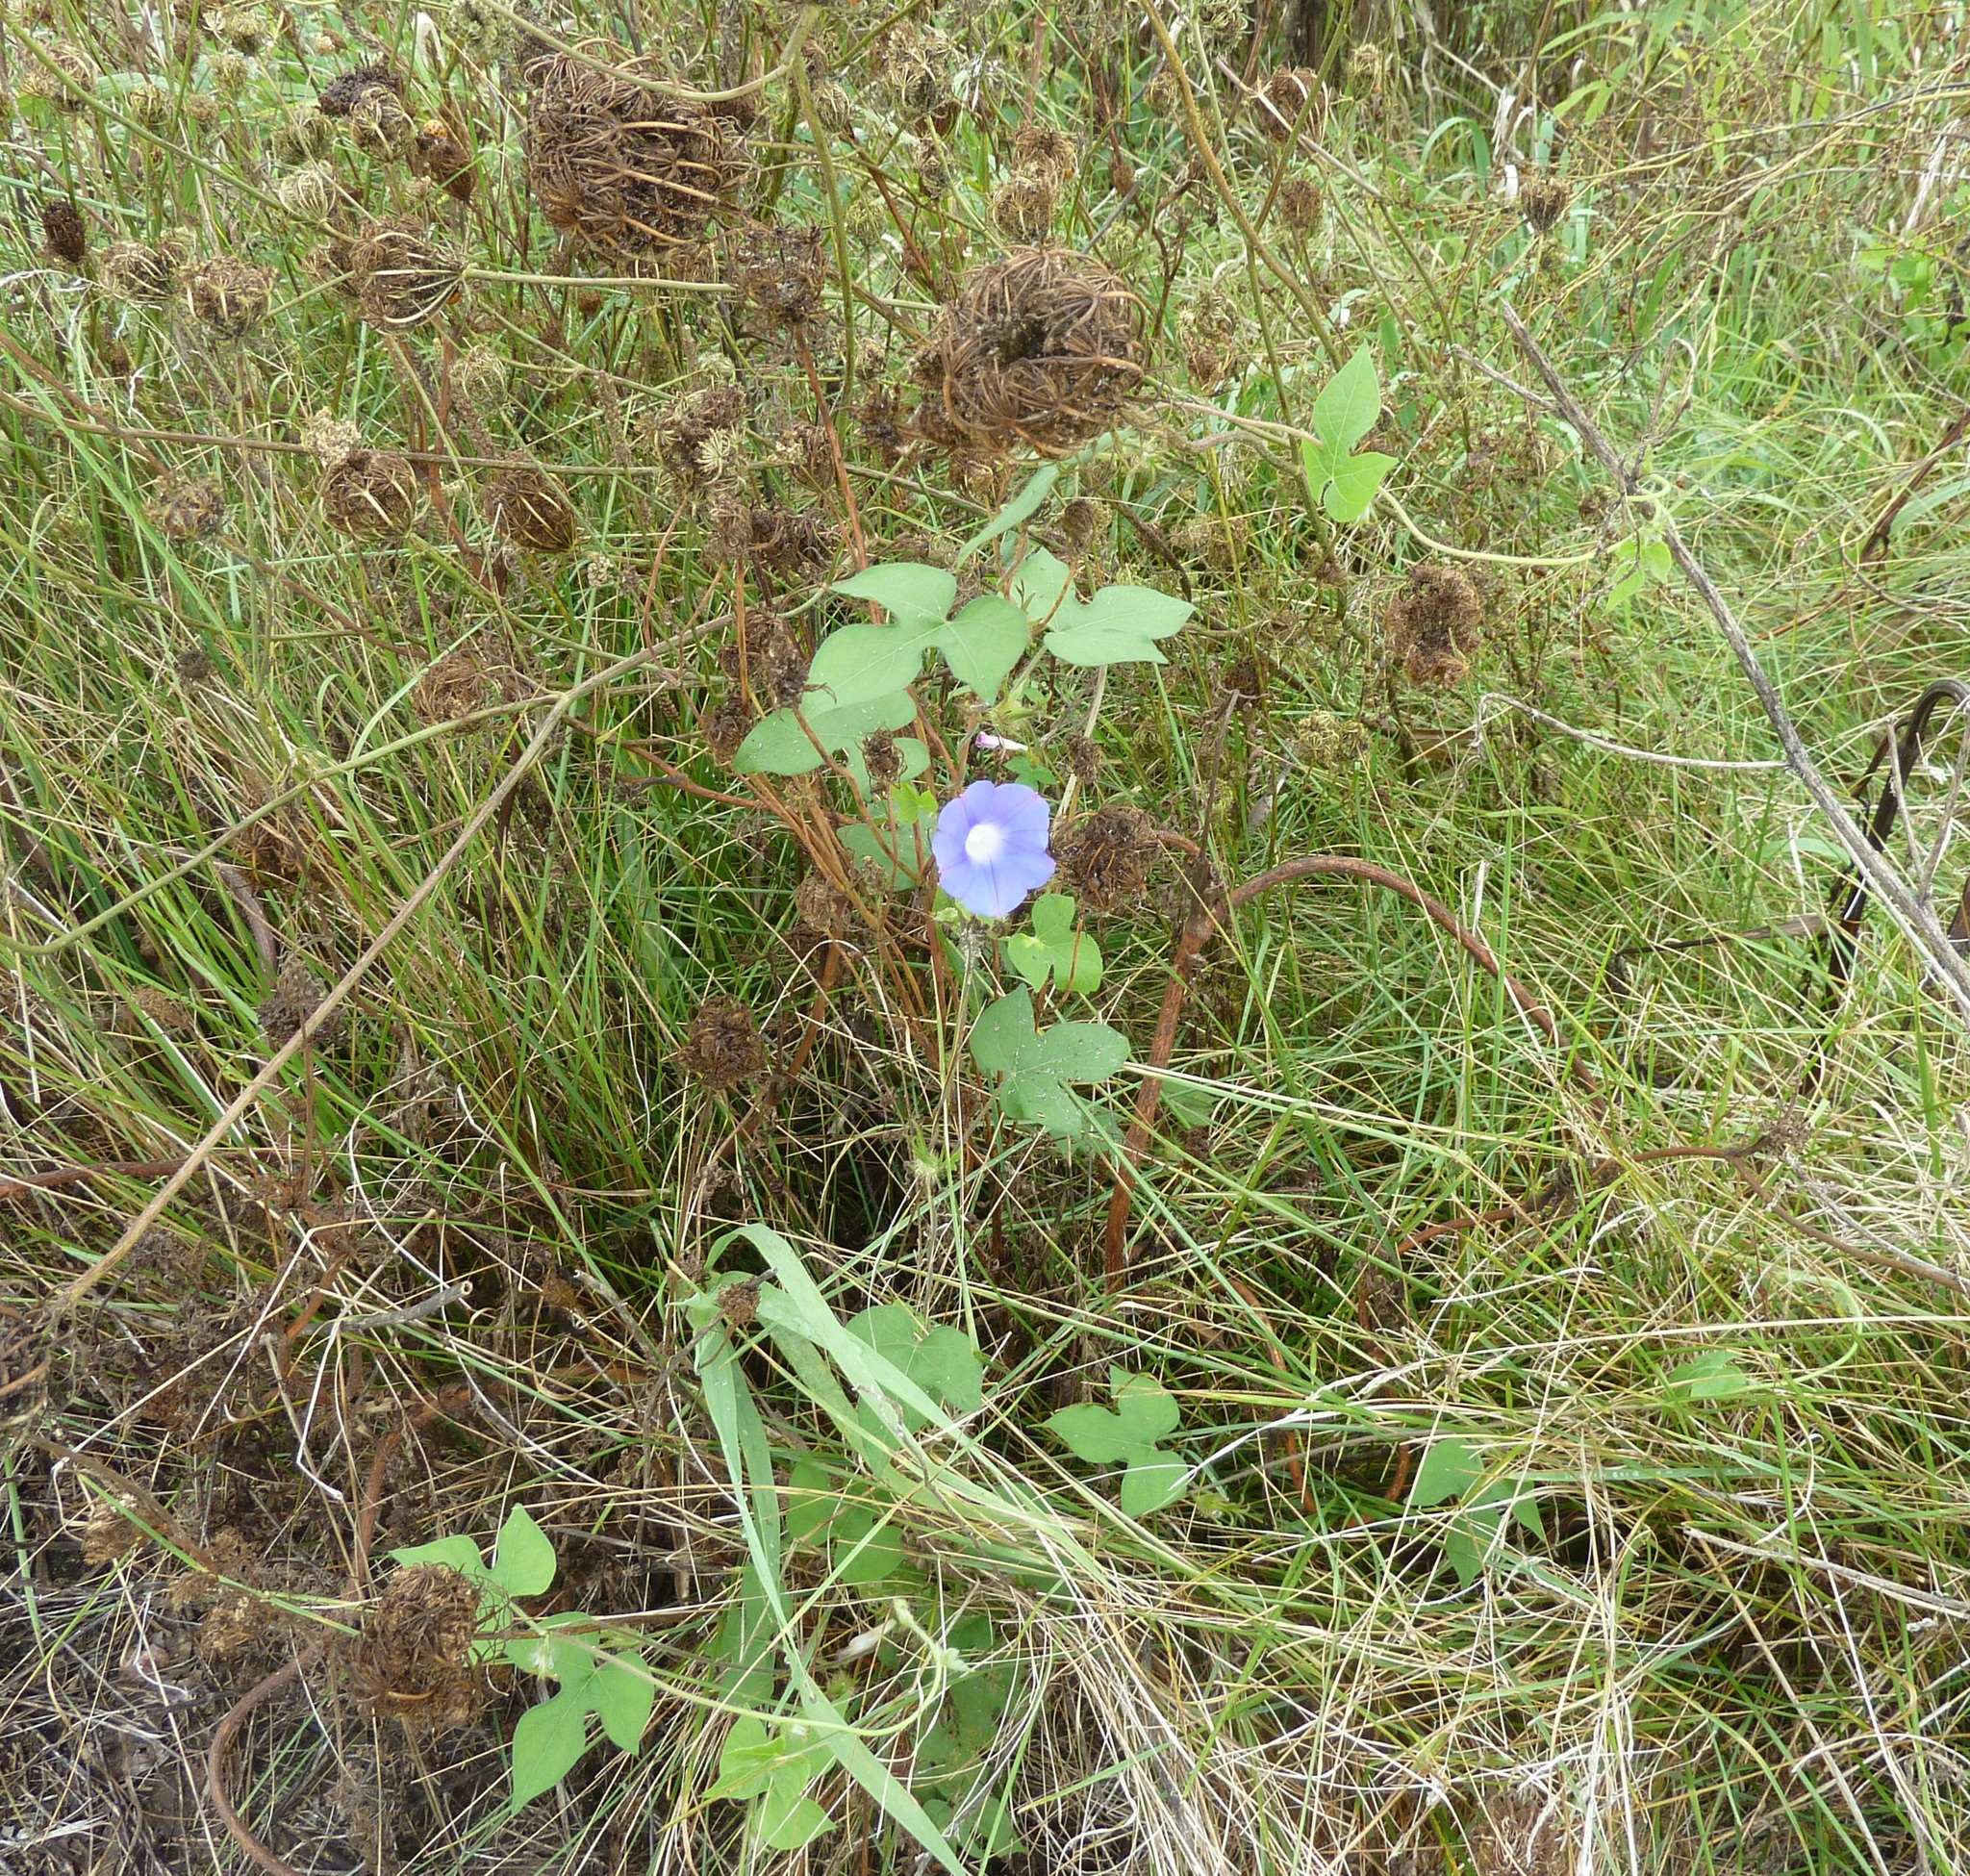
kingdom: Plantae
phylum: Tracheophyta
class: Magnoliopsida
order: Solanales
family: Convolvulaceae
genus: Ipomoea
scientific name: Ipomoea hederacea
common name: Ivy-leaved morning-glory
